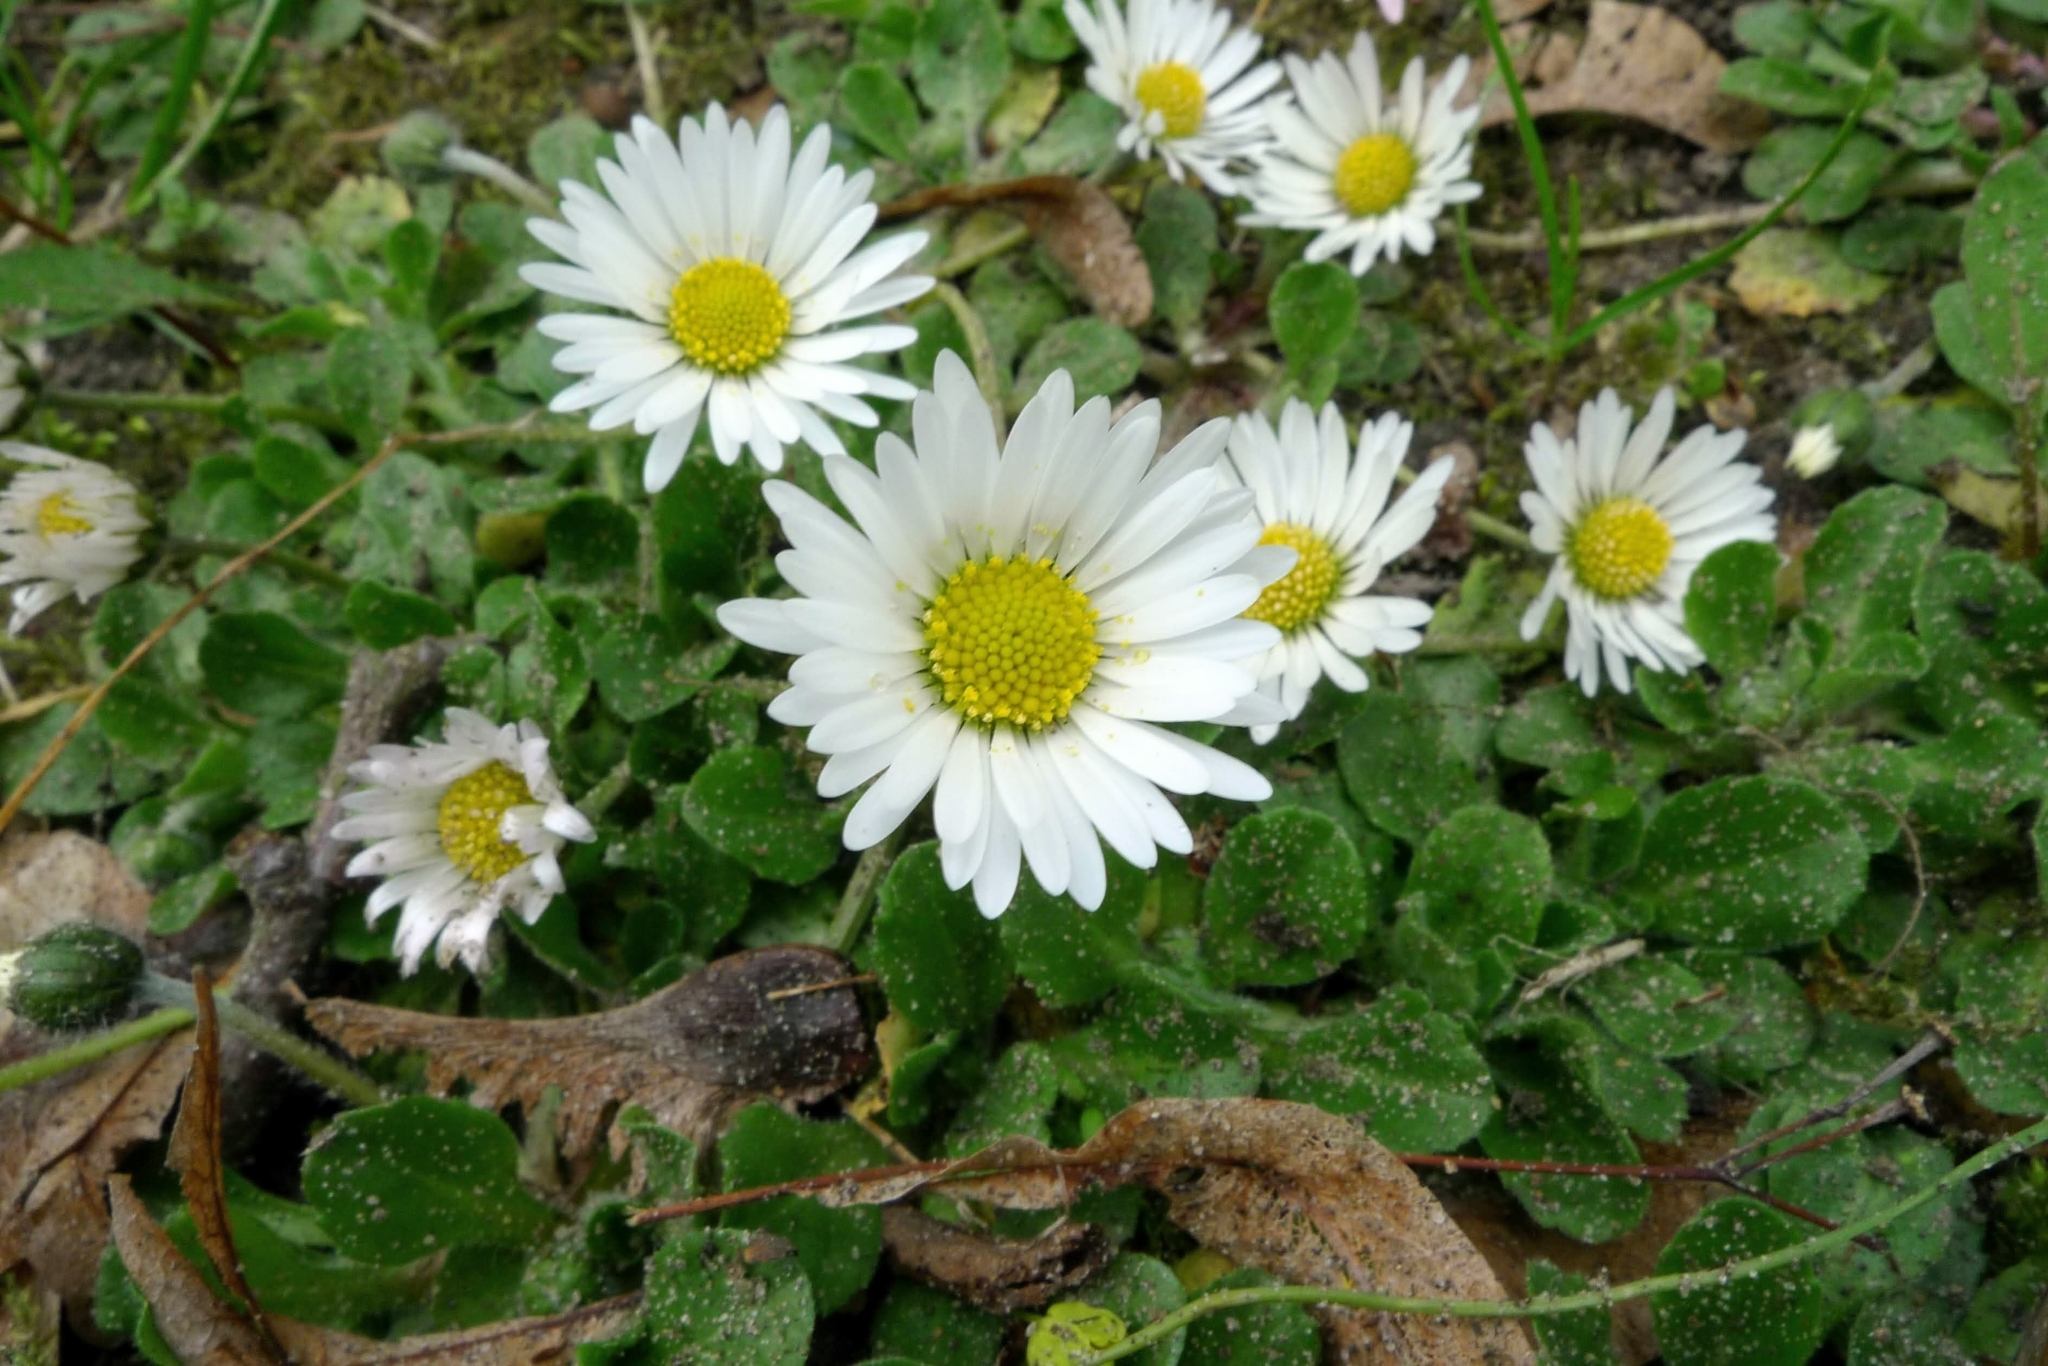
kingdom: Plantae
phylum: Tracheophyta
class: Magnoliopsida
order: Asterales
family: Asteraceae
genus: Bellis
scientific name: Bellis perennis
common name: Lawndaisy
